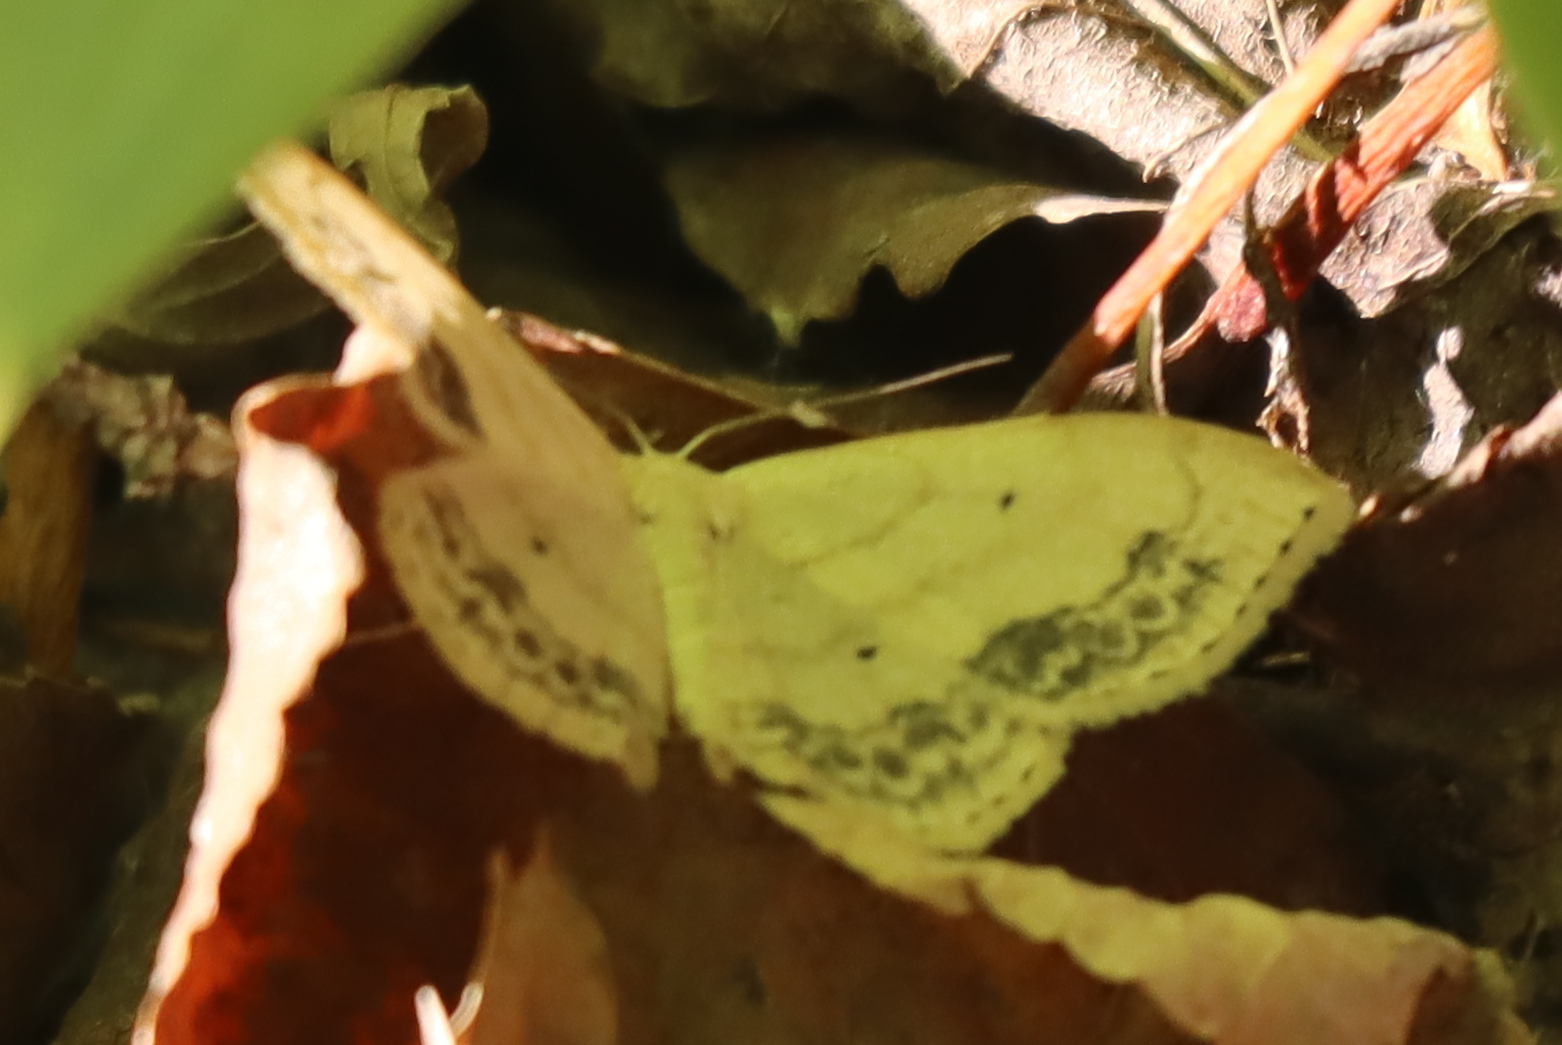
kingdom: Animalia
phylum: Arthropoda
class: Insecta
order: Lepidoptera
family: Geometridae
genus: Scopula
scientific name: Scopula limboundata
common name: Large lace border
